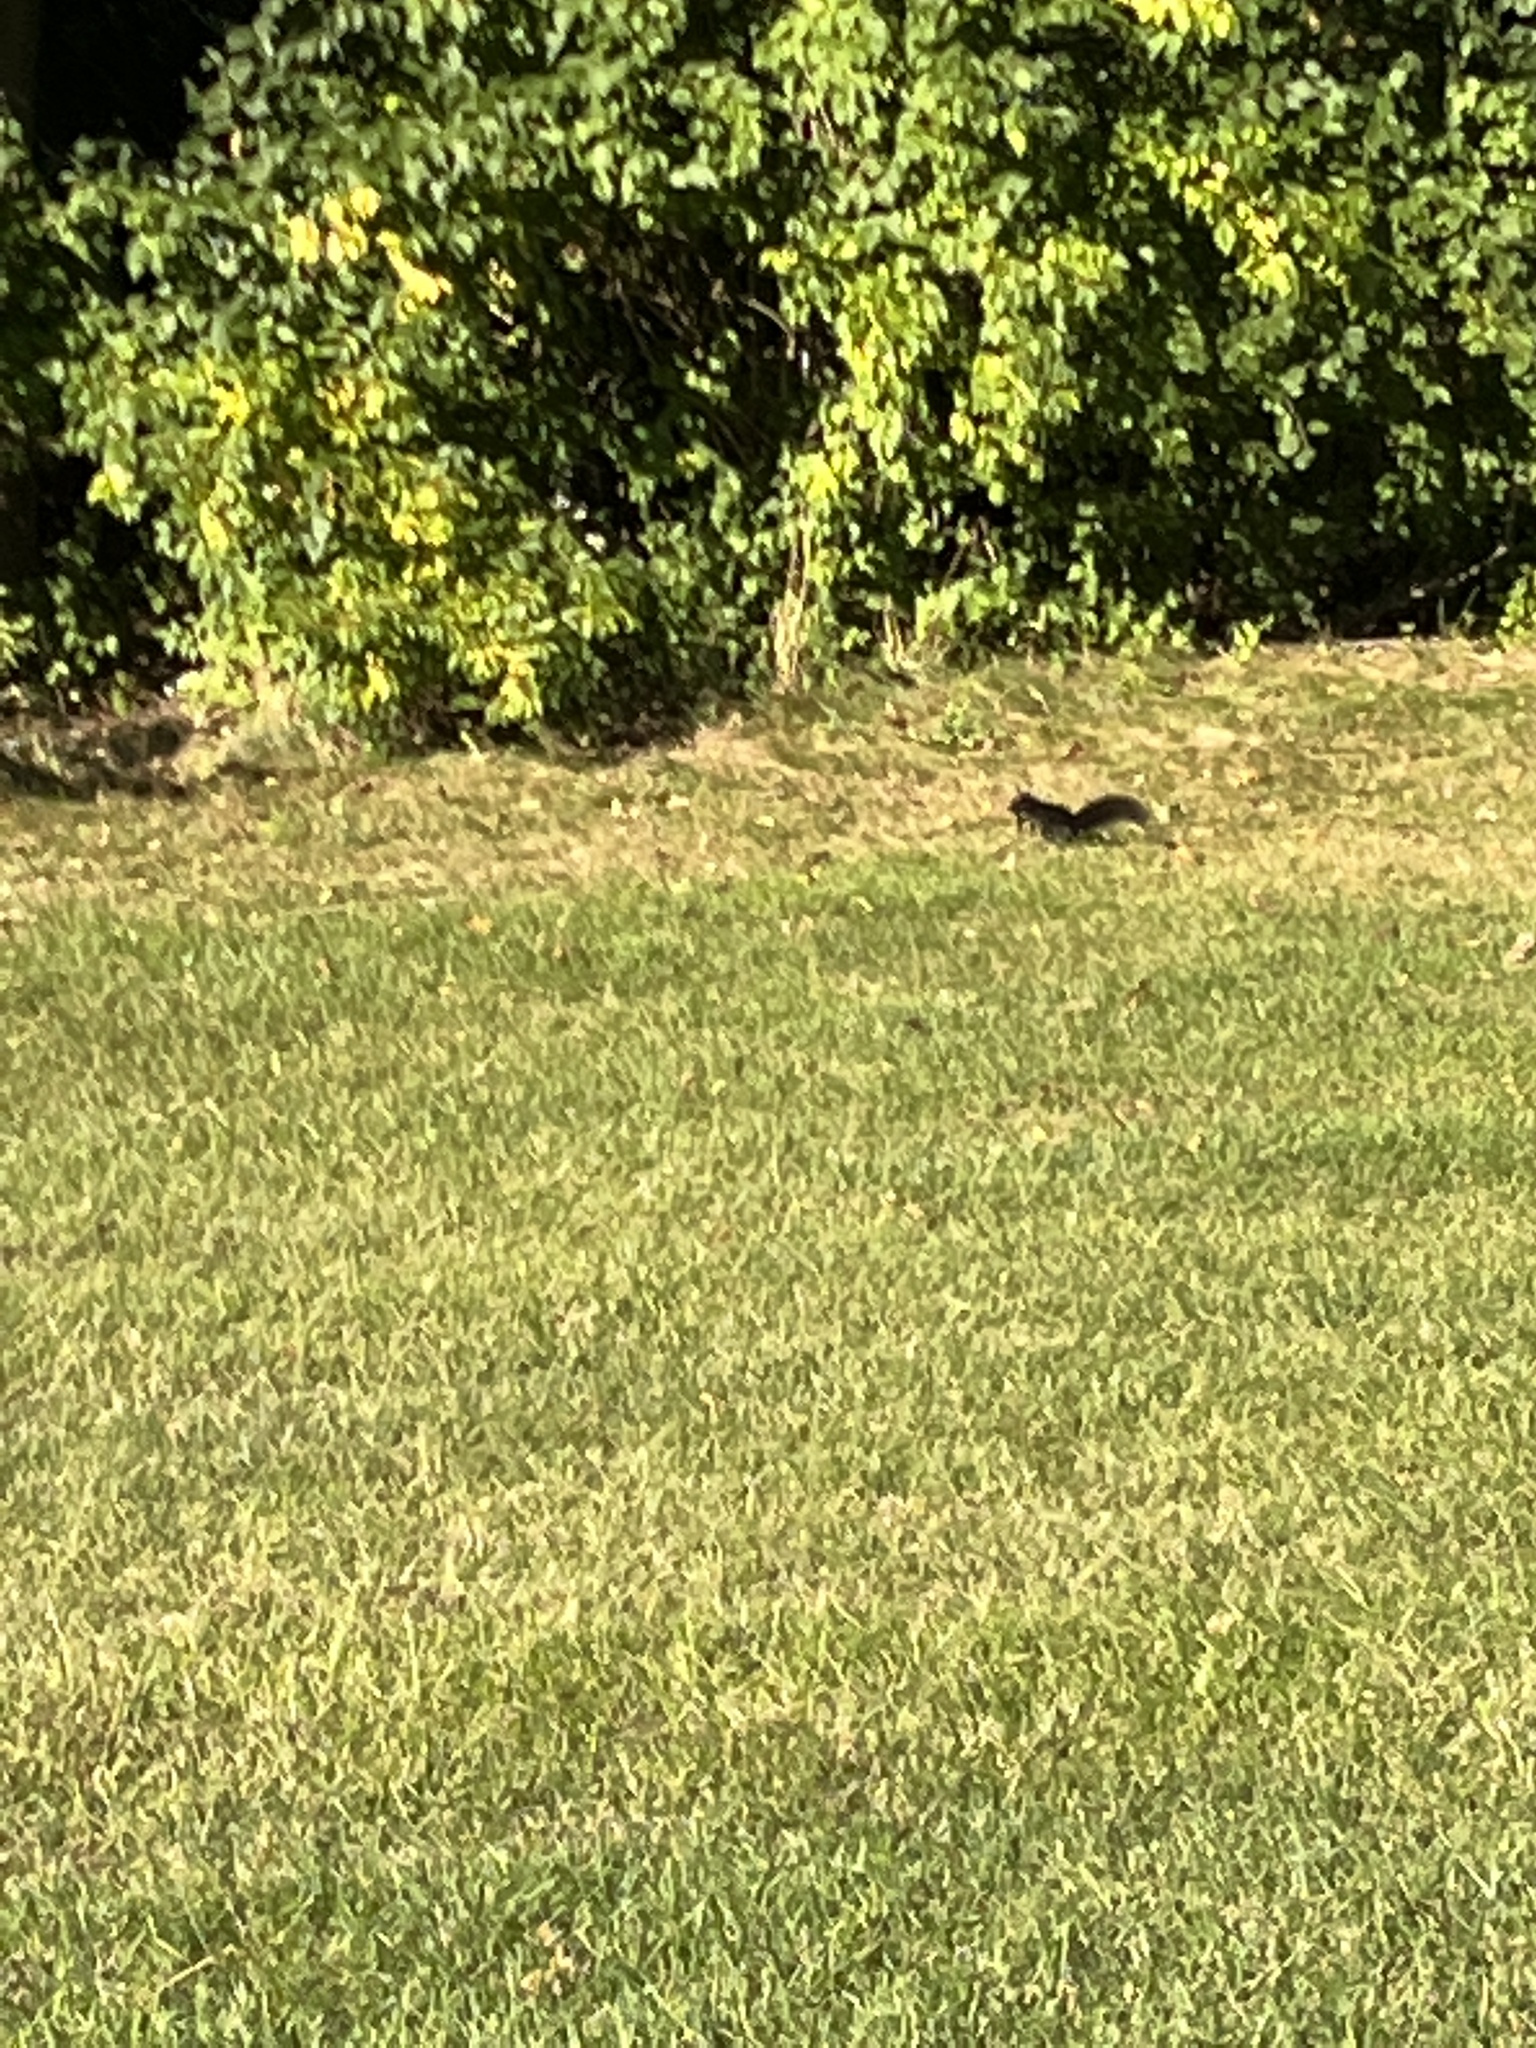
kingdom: Animalia
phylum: Chordata
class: Mammalia
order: Rodentia
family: Sciuridae
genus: Sciurus
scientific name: Sciurus carolinensis
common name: Eastern gray squirrel
